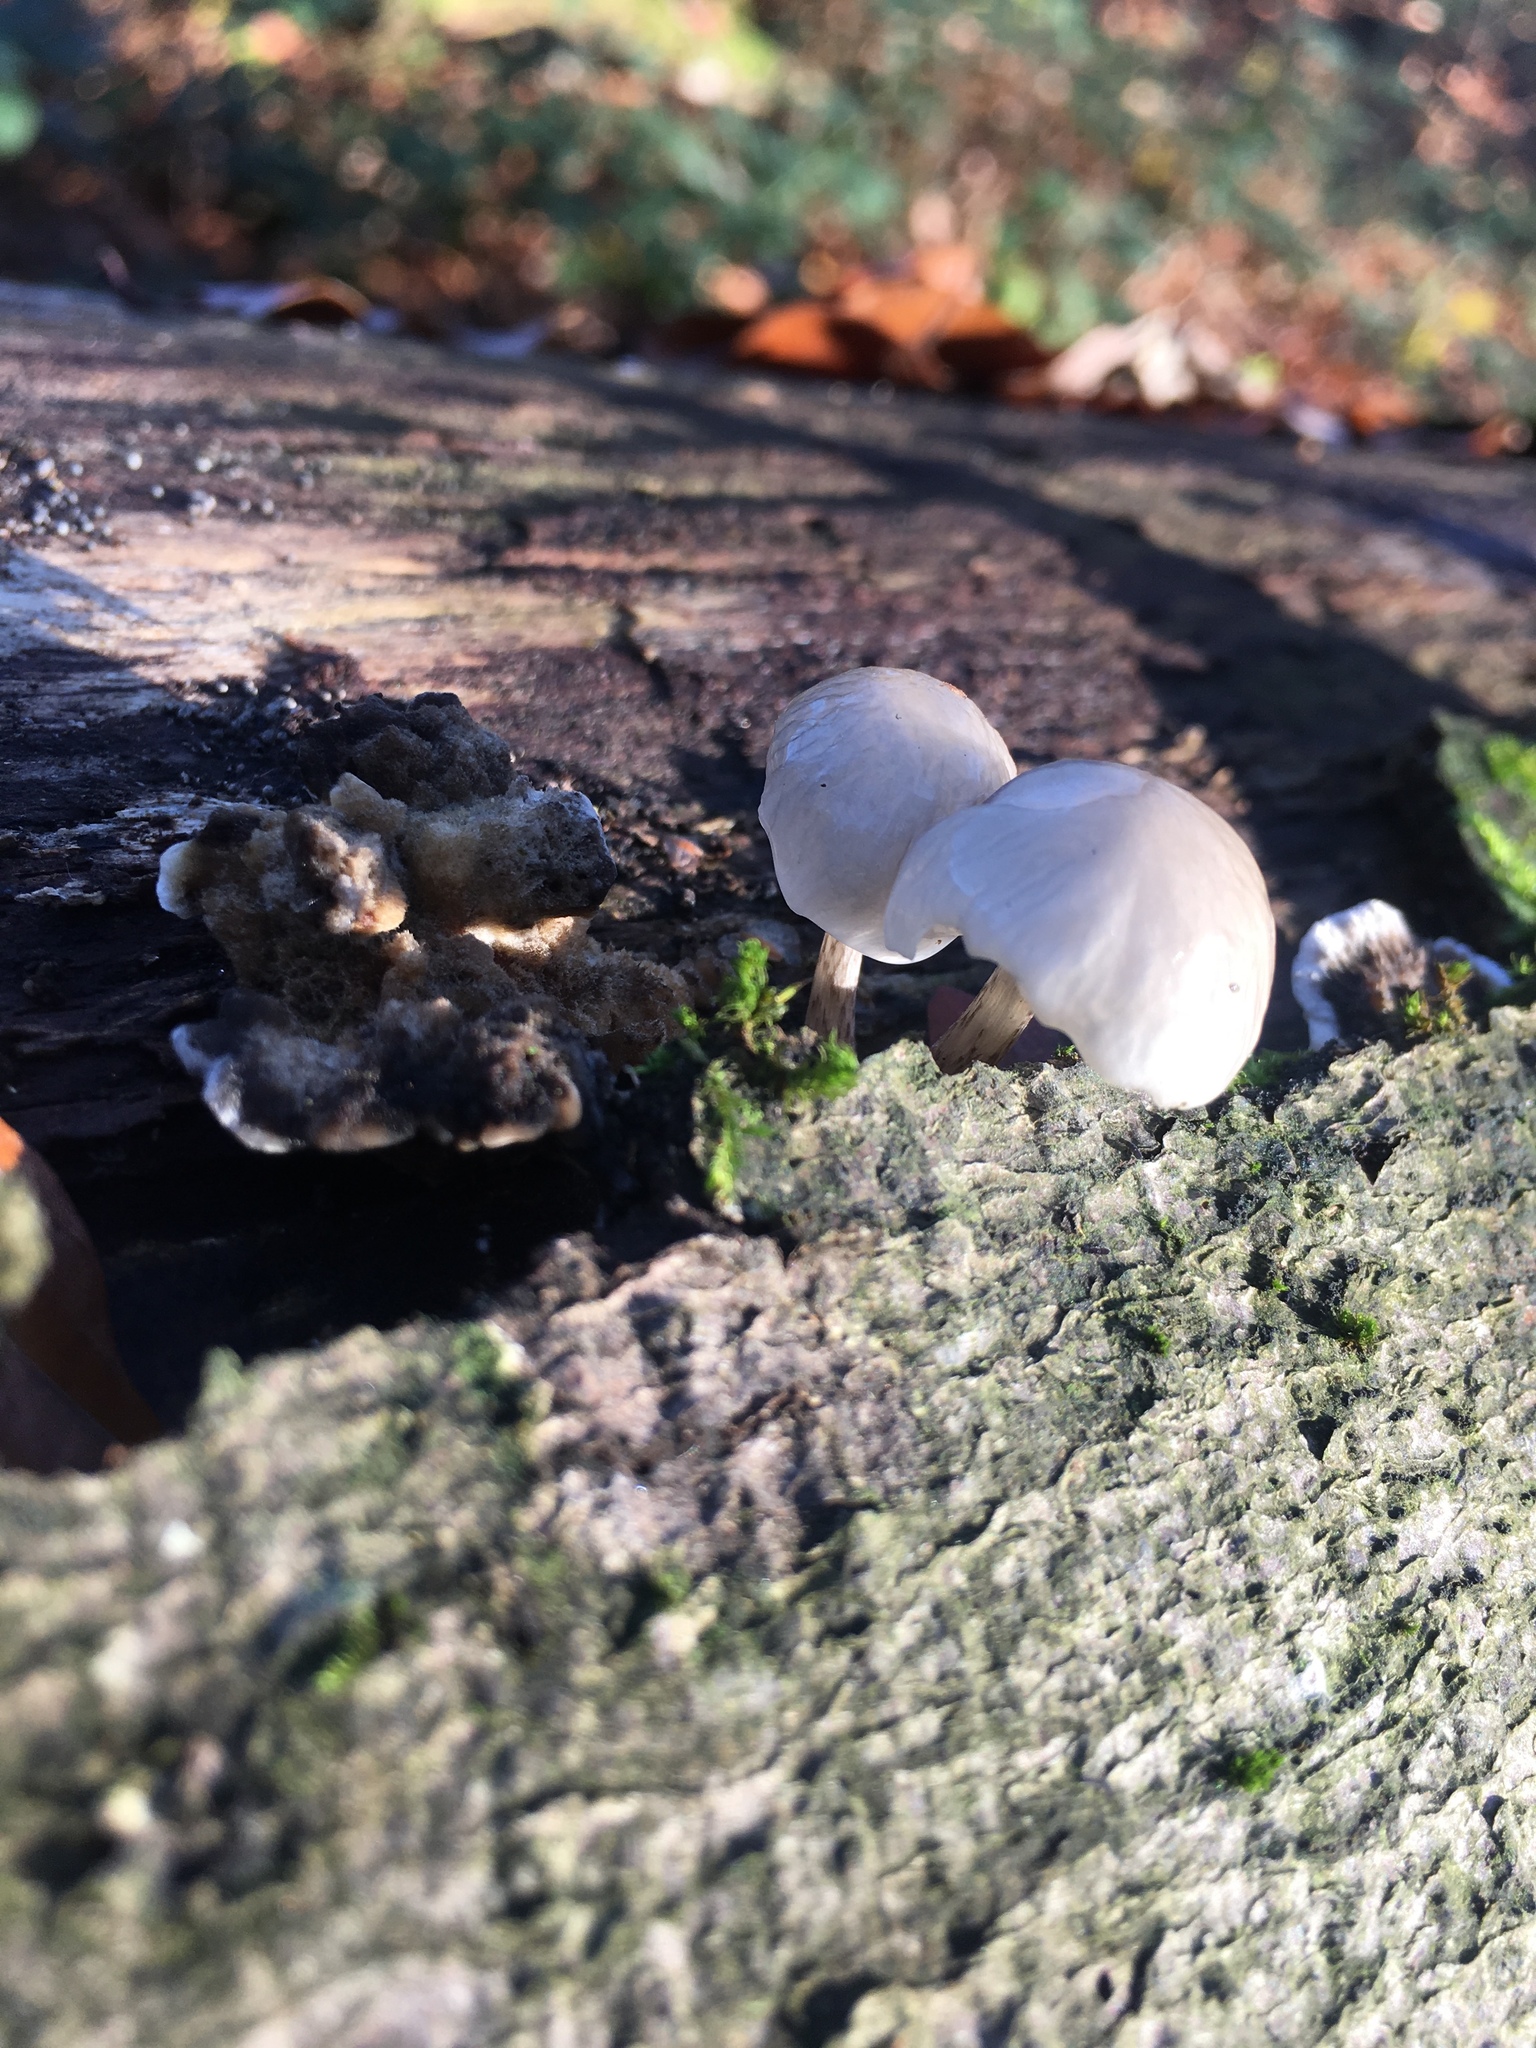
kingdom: Fungi
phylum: Basidiomycota
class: Agaricomycetes
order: Agaricales
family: Physalacriaceae
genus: Mucidula
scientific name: Mucidula mucida
